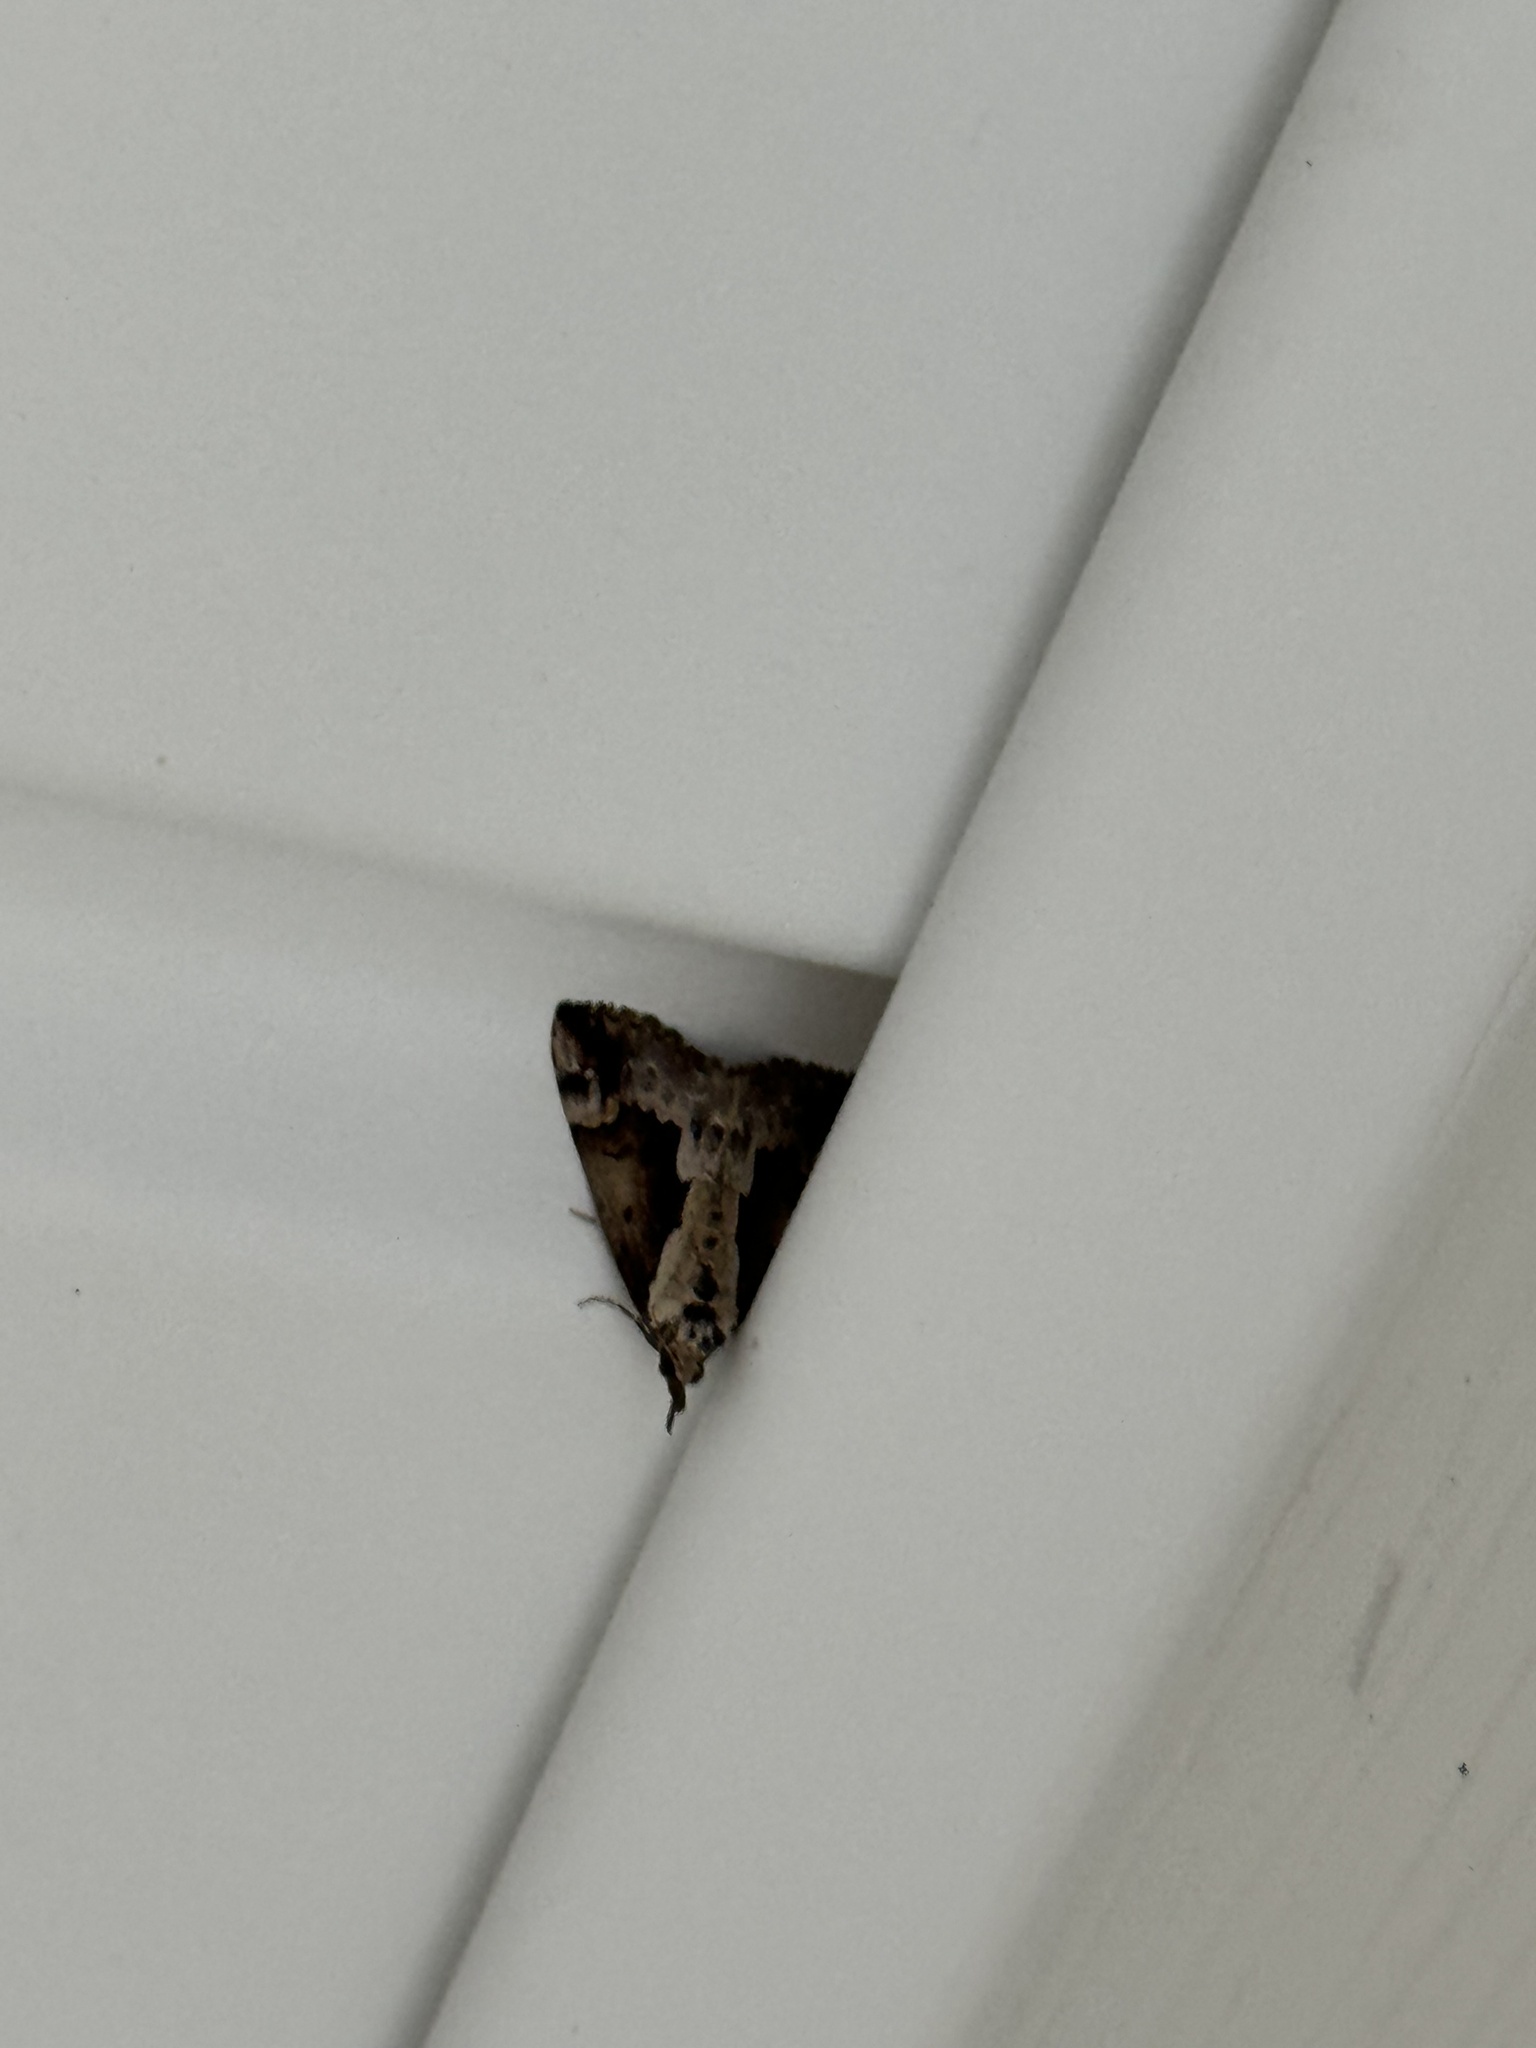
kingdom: Animalia
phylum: Arthropoda
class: Insecta
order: Lepidoptera
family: Erebidae
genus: Hypena
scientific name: Hypena baltimoralis
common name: Baltimore snout
